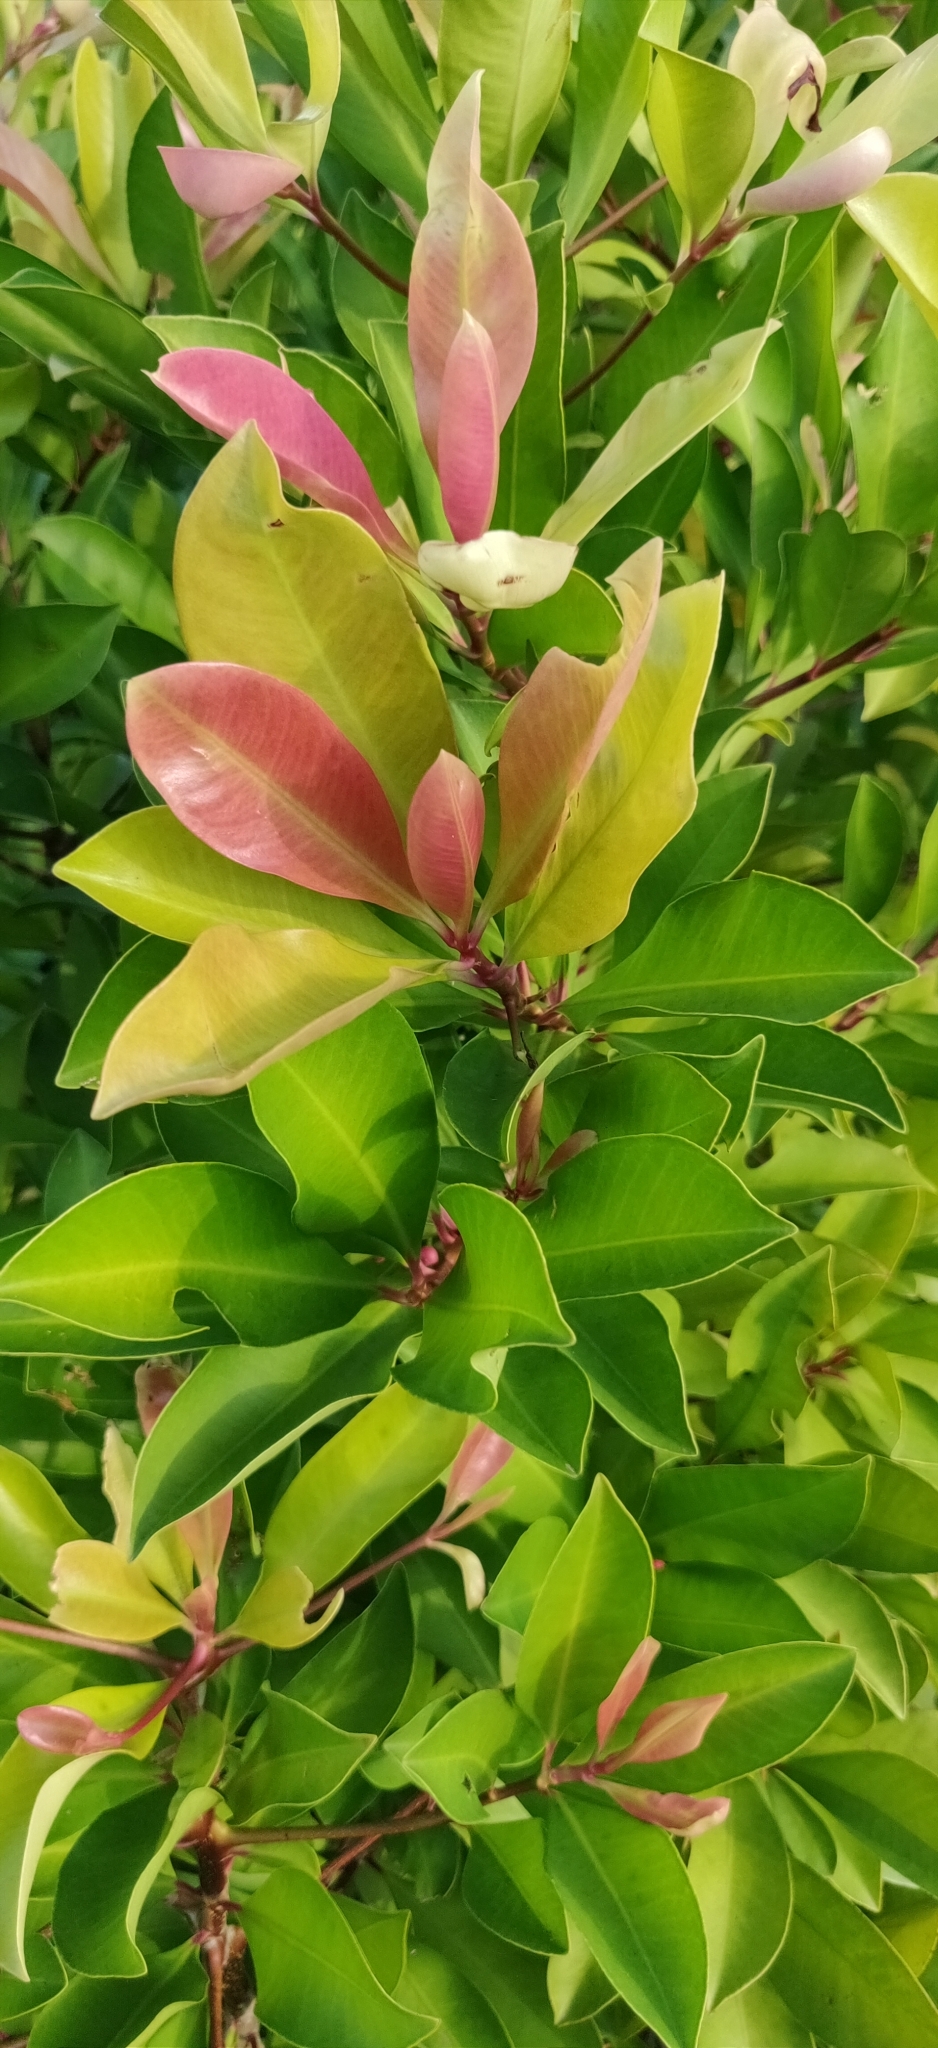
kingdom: Plantae
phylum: Tracheophyta
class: Magnoliopsida
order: Ericales
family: Primulaceae
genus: Ardisia
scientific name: Ardisia oxyphylla
